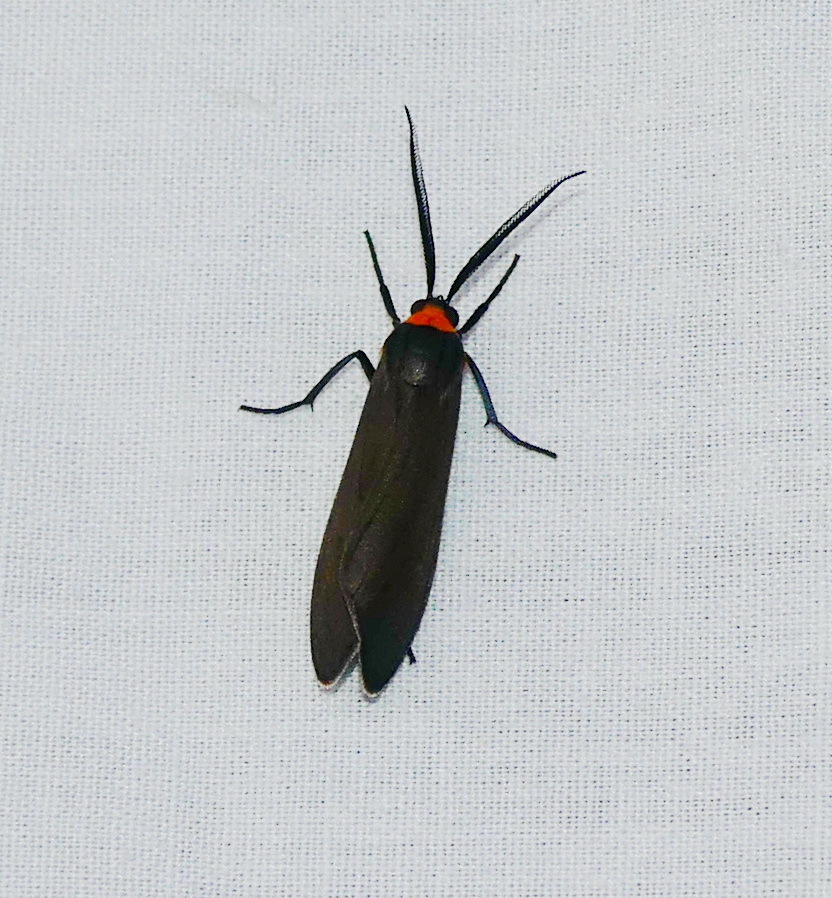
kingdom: Animalia
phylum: Arthropoda
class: Insecta
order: Lepidoptera
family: Erebidae
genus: Cisseps
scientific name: Cisseps fulvicollis
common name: Yellow-collared scape moth
